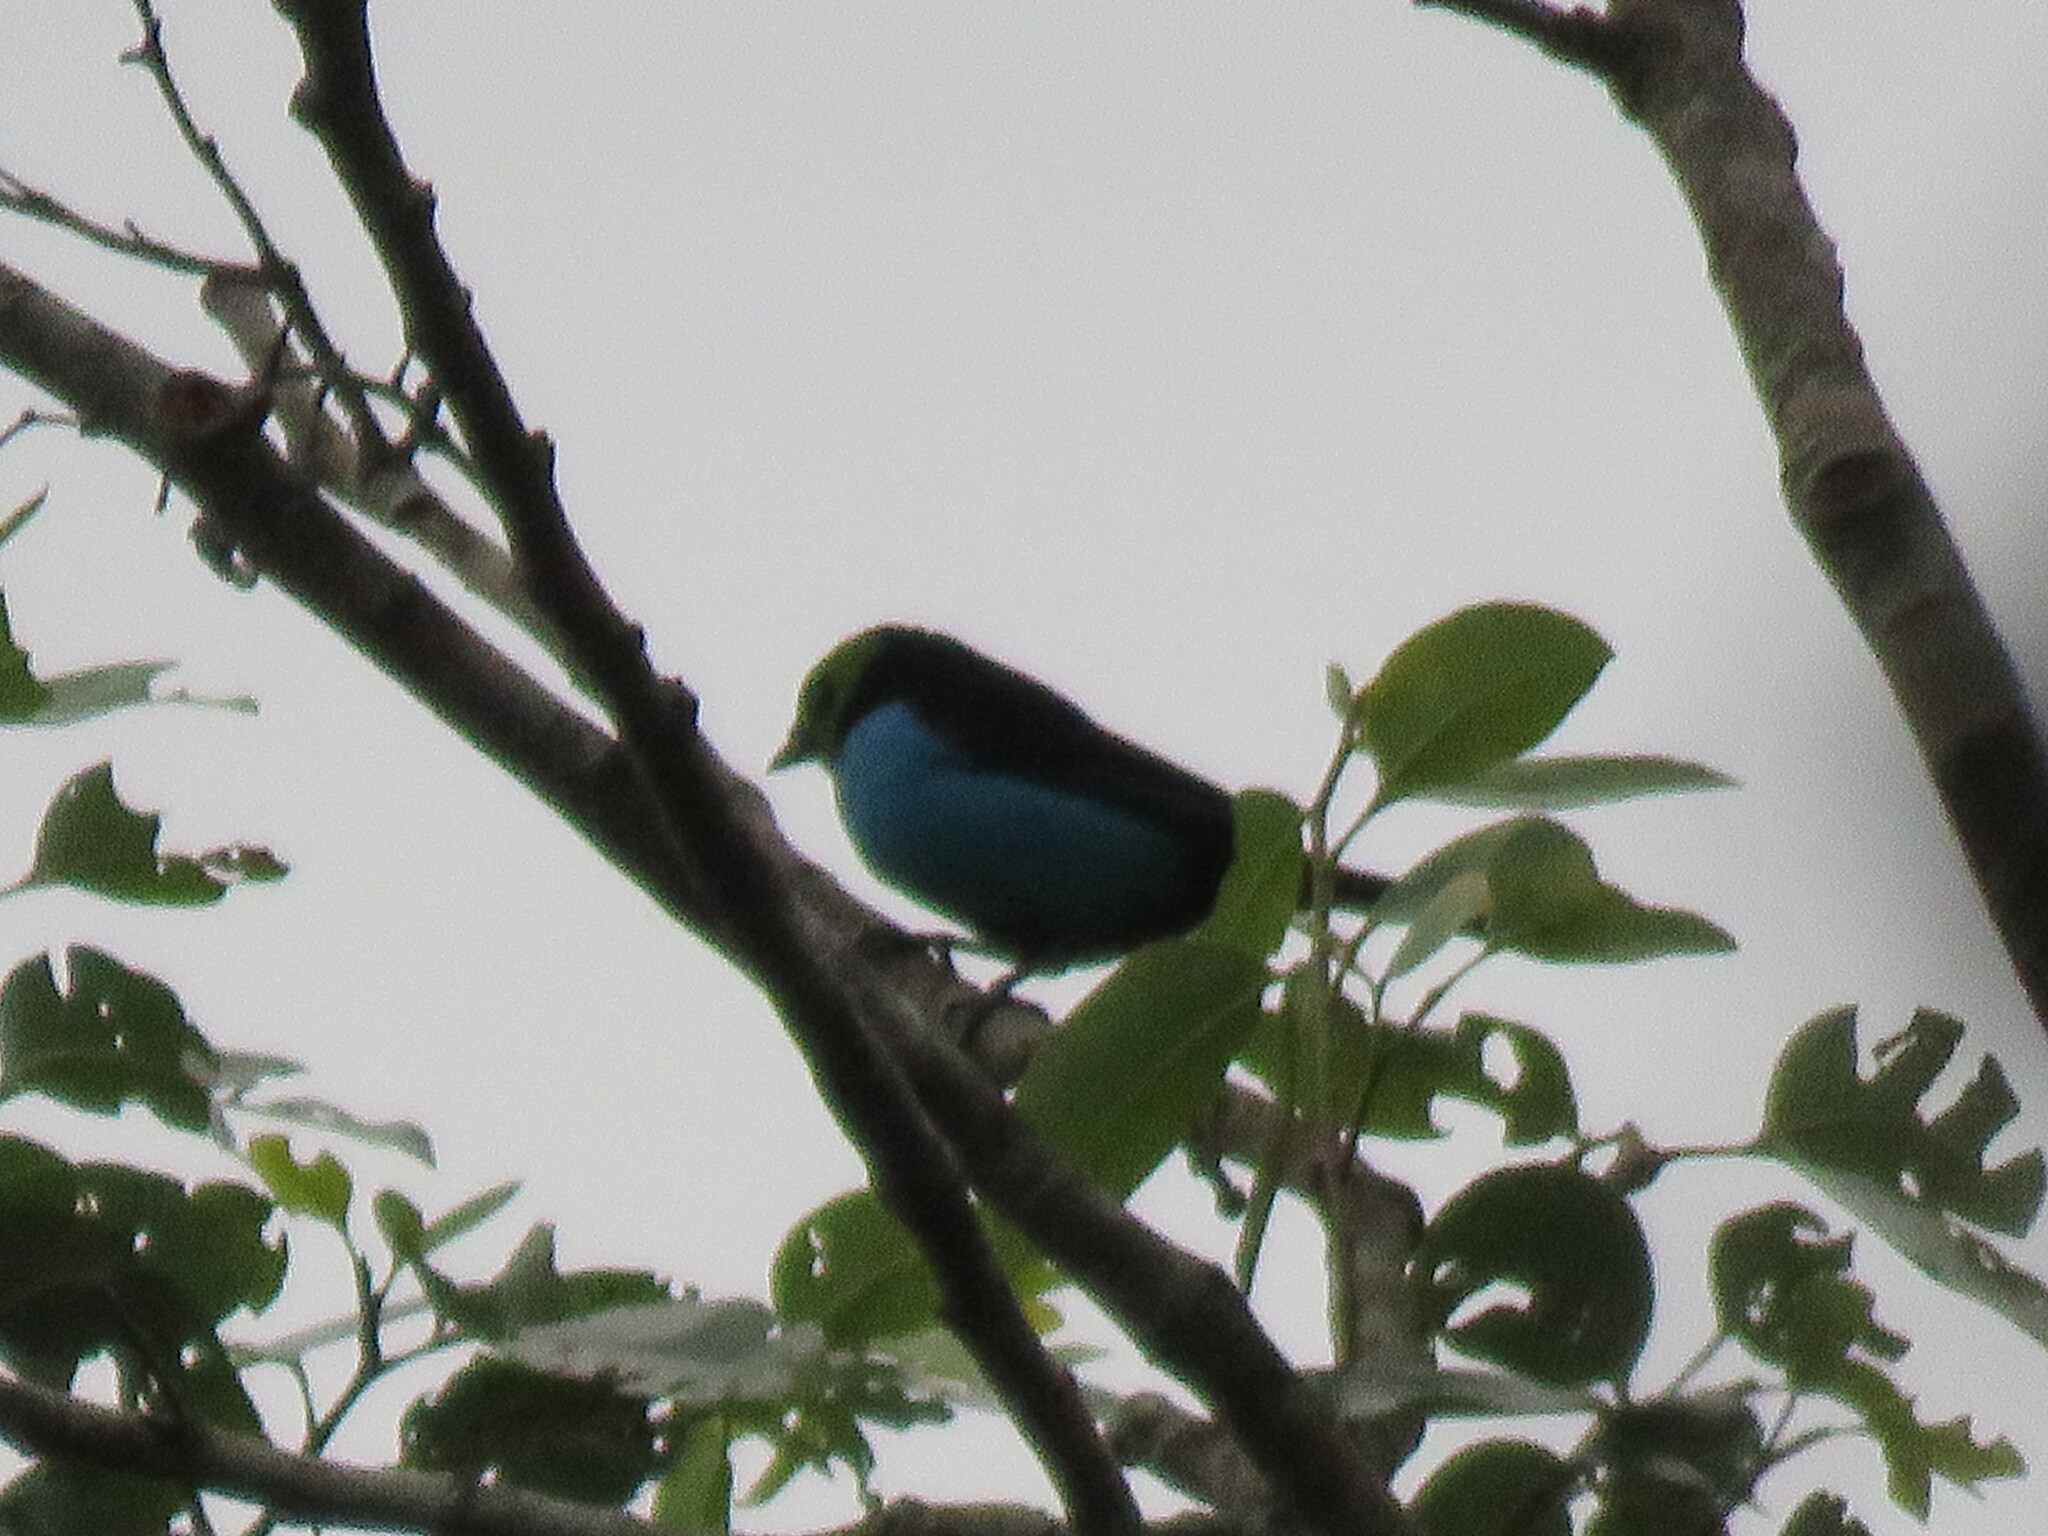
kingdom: Animalia
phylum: Chordata
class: Aves
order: Passeriformes
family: Thraupidae
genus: Tangara
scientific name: Tangara chilensis
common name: Paradise tanager
